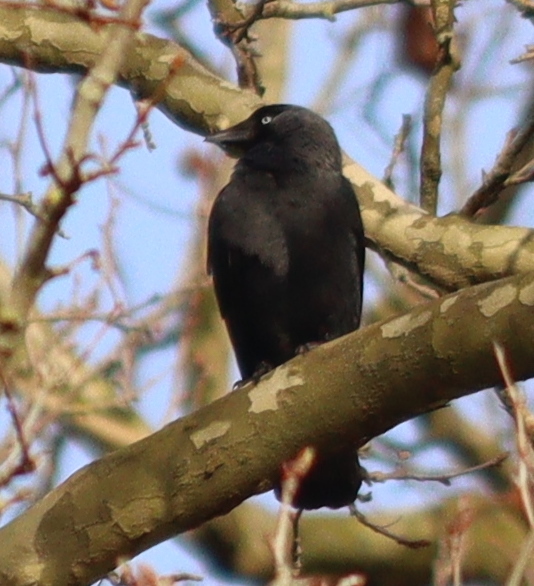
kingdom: Animalia
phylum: Chordata
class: Aves
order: Passeriformes
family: Corvidae
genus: Coloeus
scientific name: Coloeus monedula
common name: Western jackdaw
